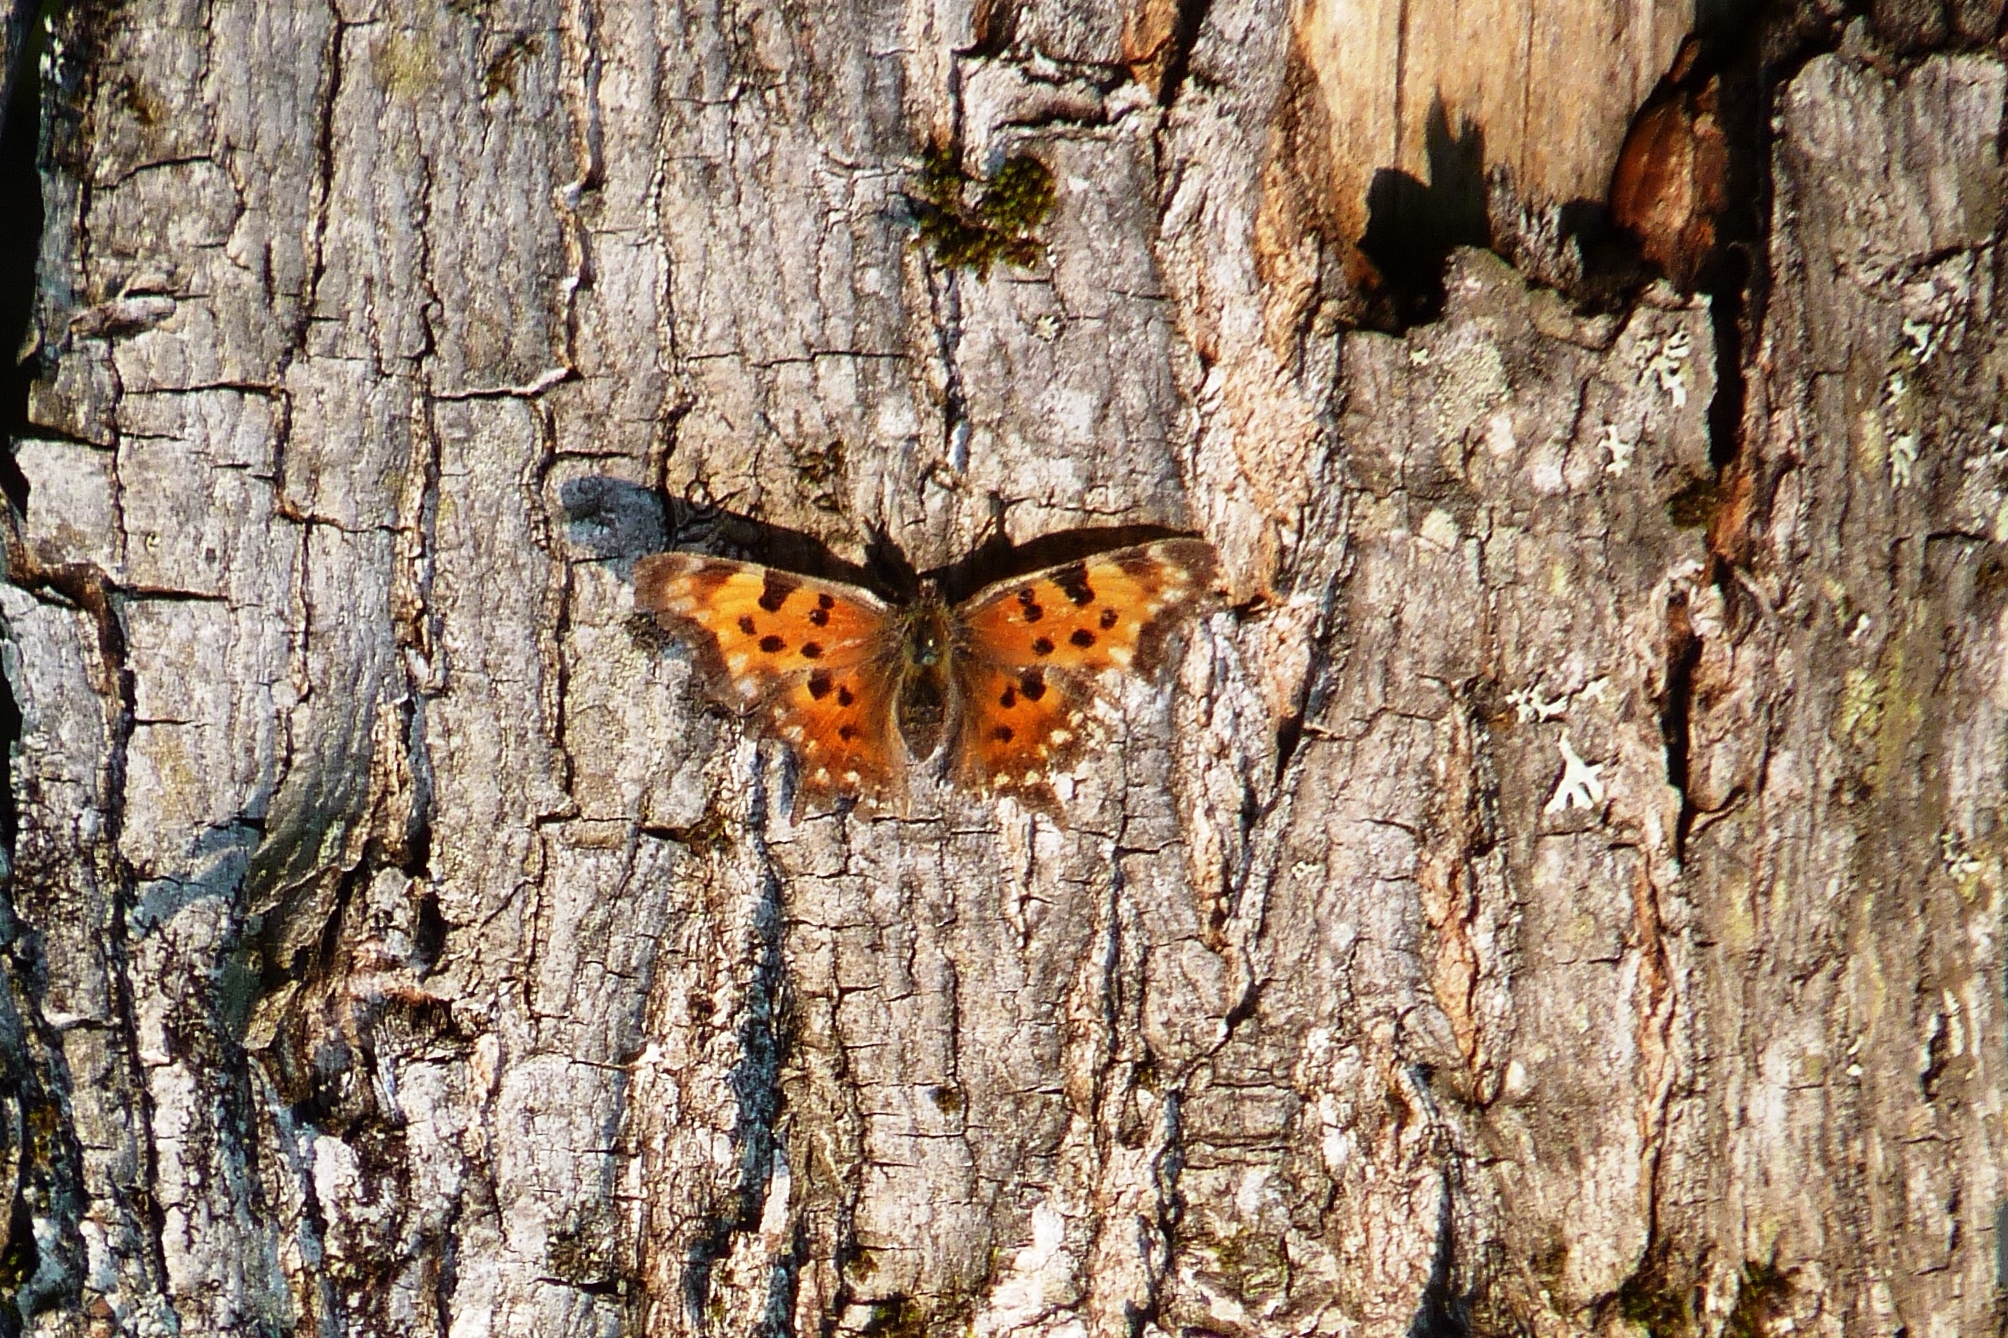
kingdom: Animalia
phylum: Arthropoda
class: Insecta
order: Lepidoptera
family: Nymphalidae
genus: Polygonia
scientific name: Polygonia faunus
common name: Green comma
